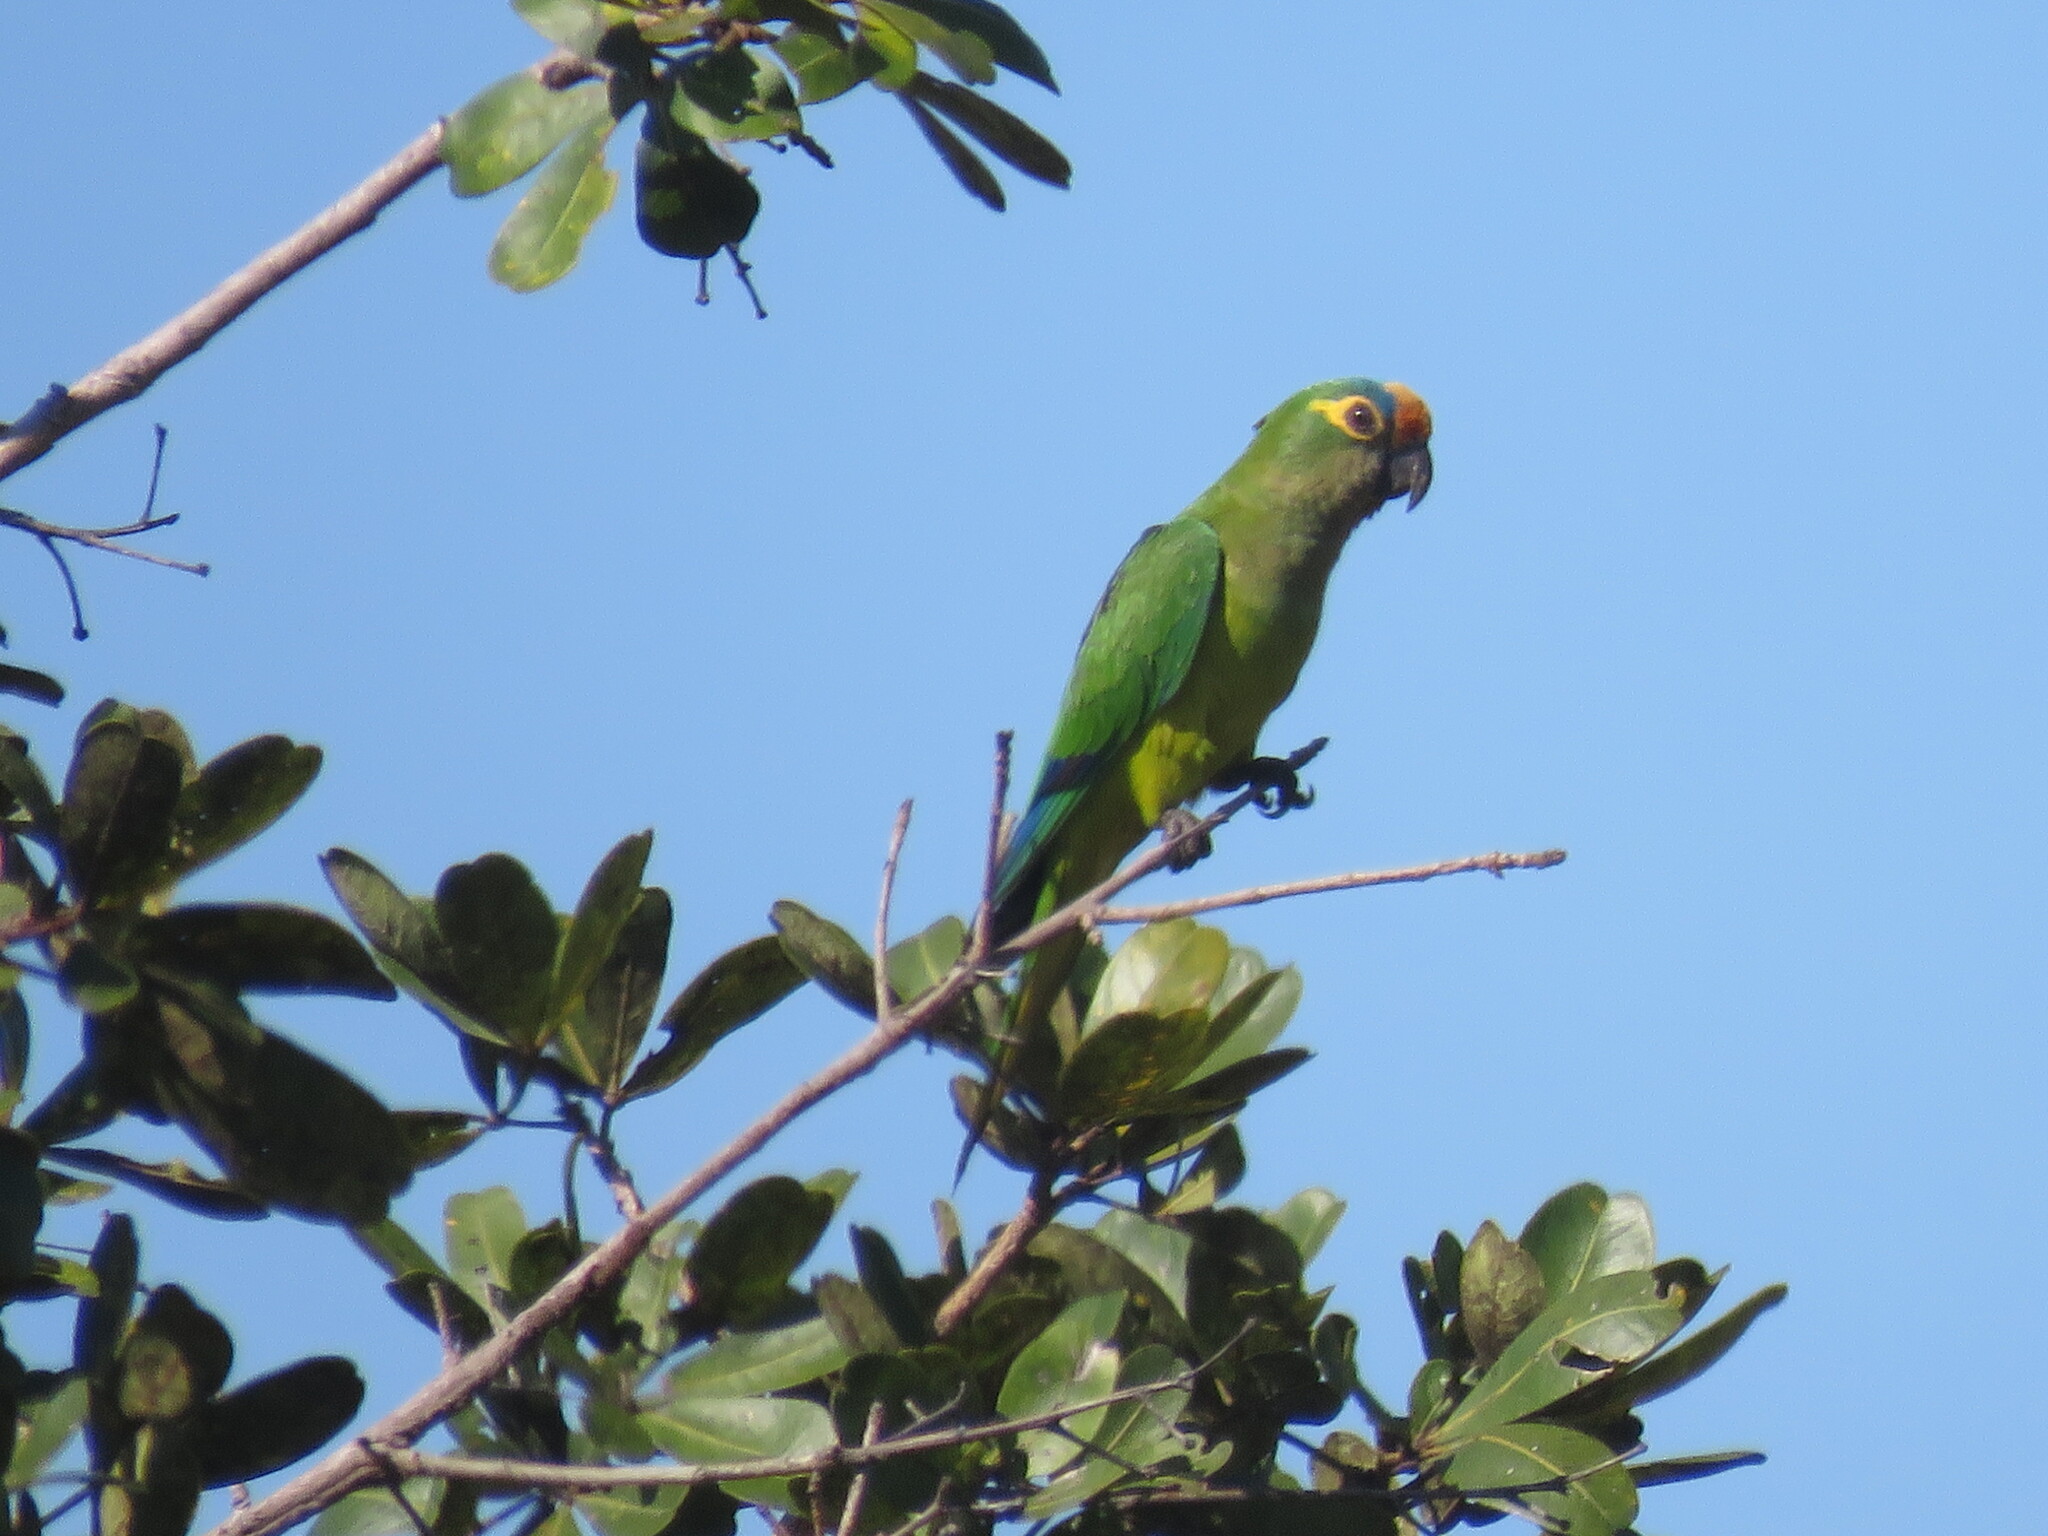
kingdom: Animalia
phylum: Chordata
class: Aves
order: Psittaciformes
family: Psittacidae
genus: Aratinga
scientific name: Aratinga aurea
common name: Peach-fronted parakeet
